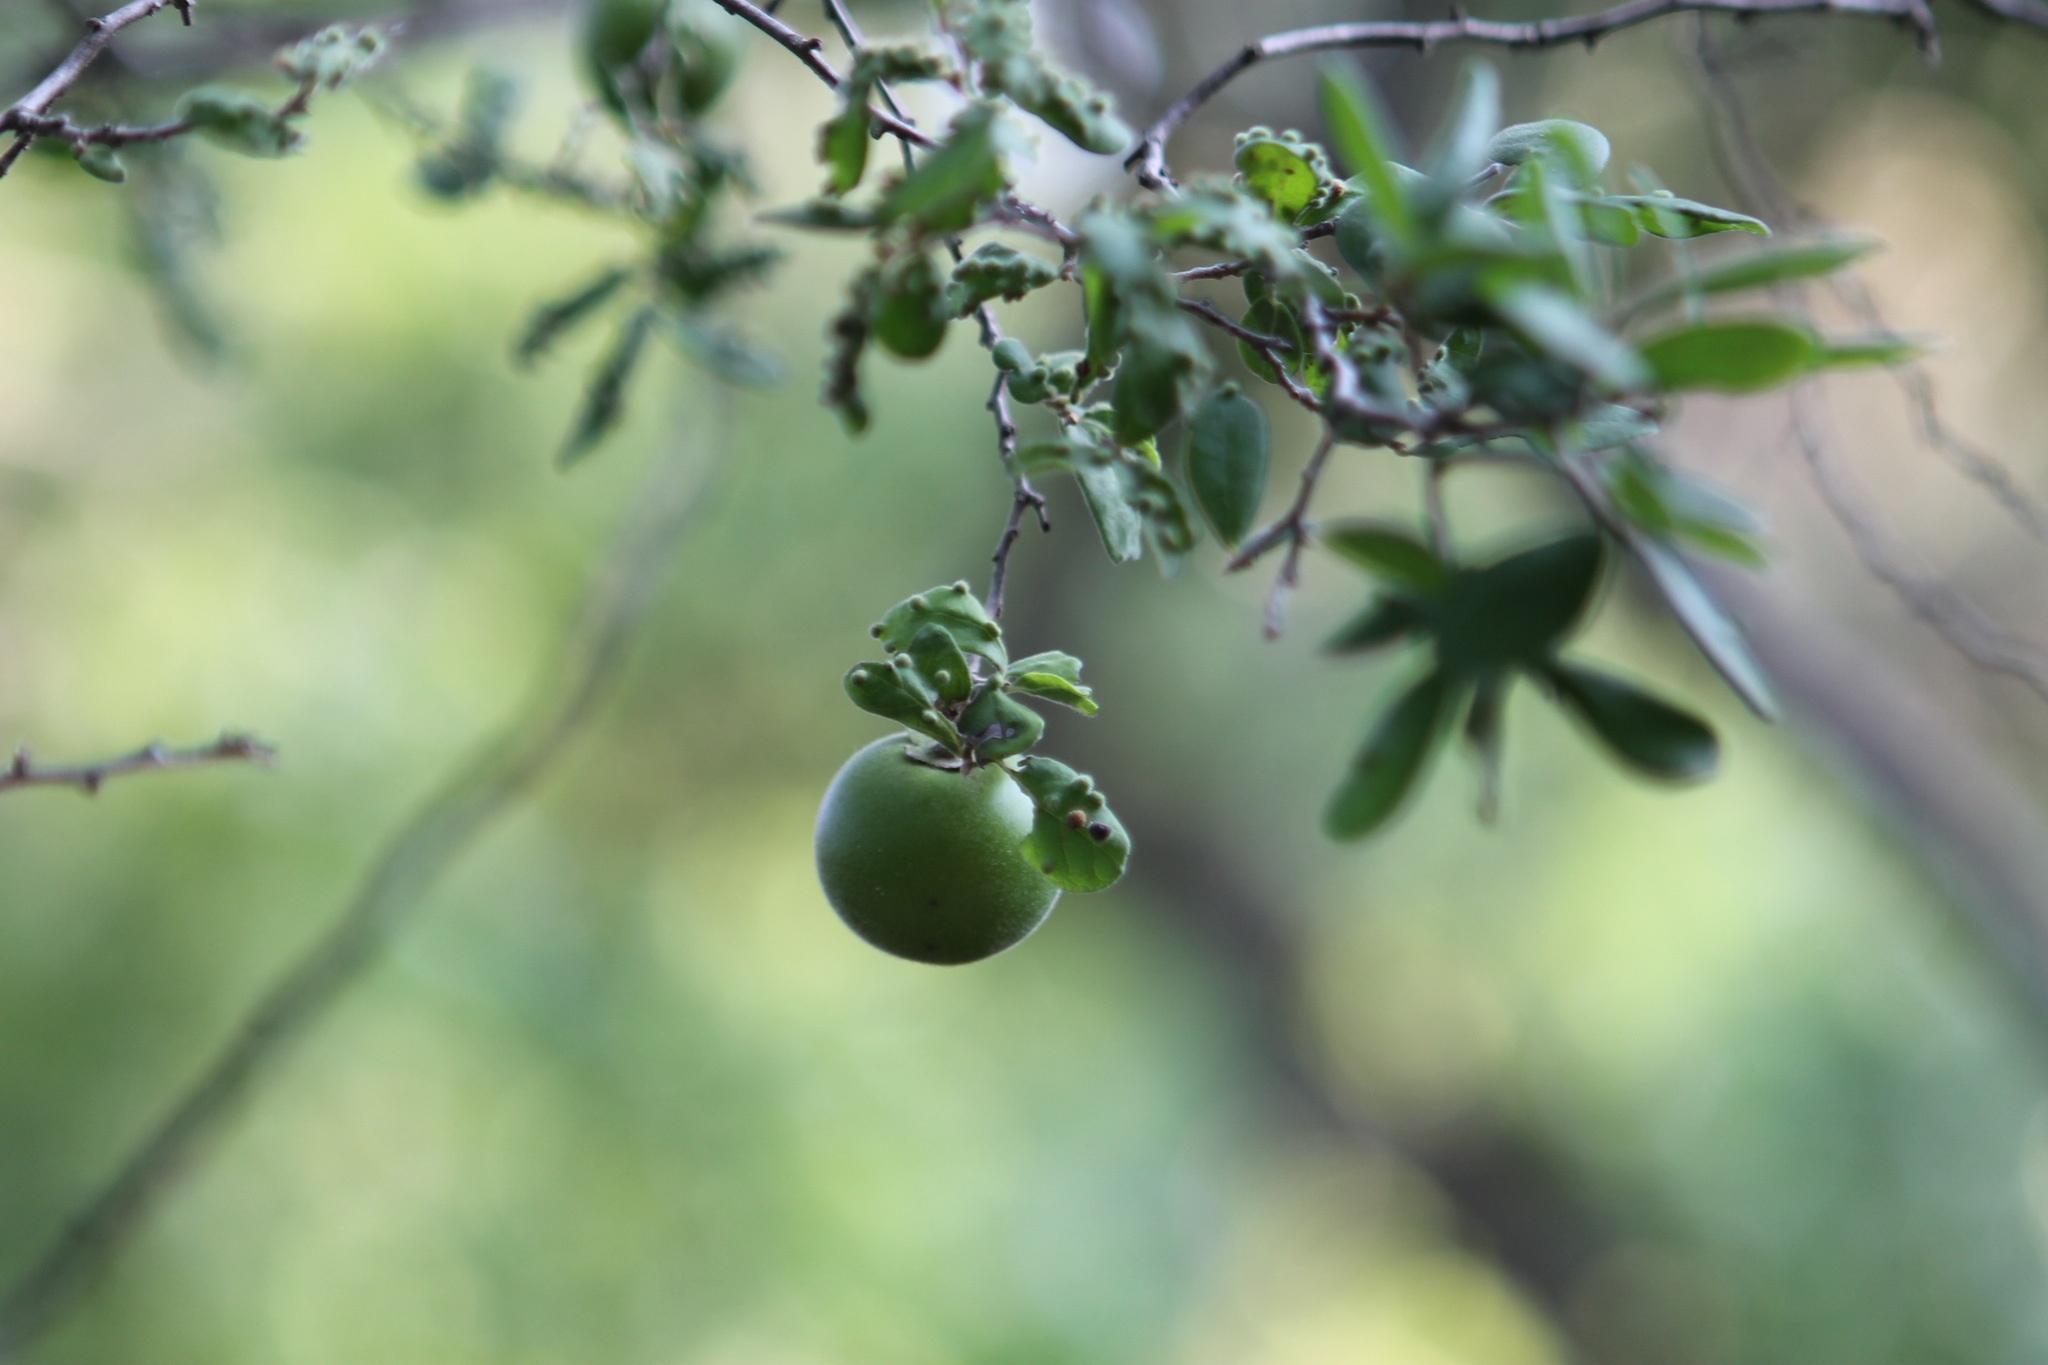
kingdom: Plantae
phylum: Tracheophyta
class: Magnoliopsida
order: Ericales
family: Ebenaceae
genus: Diospyros
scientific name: Diospyros texana
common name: Texas persimmon
